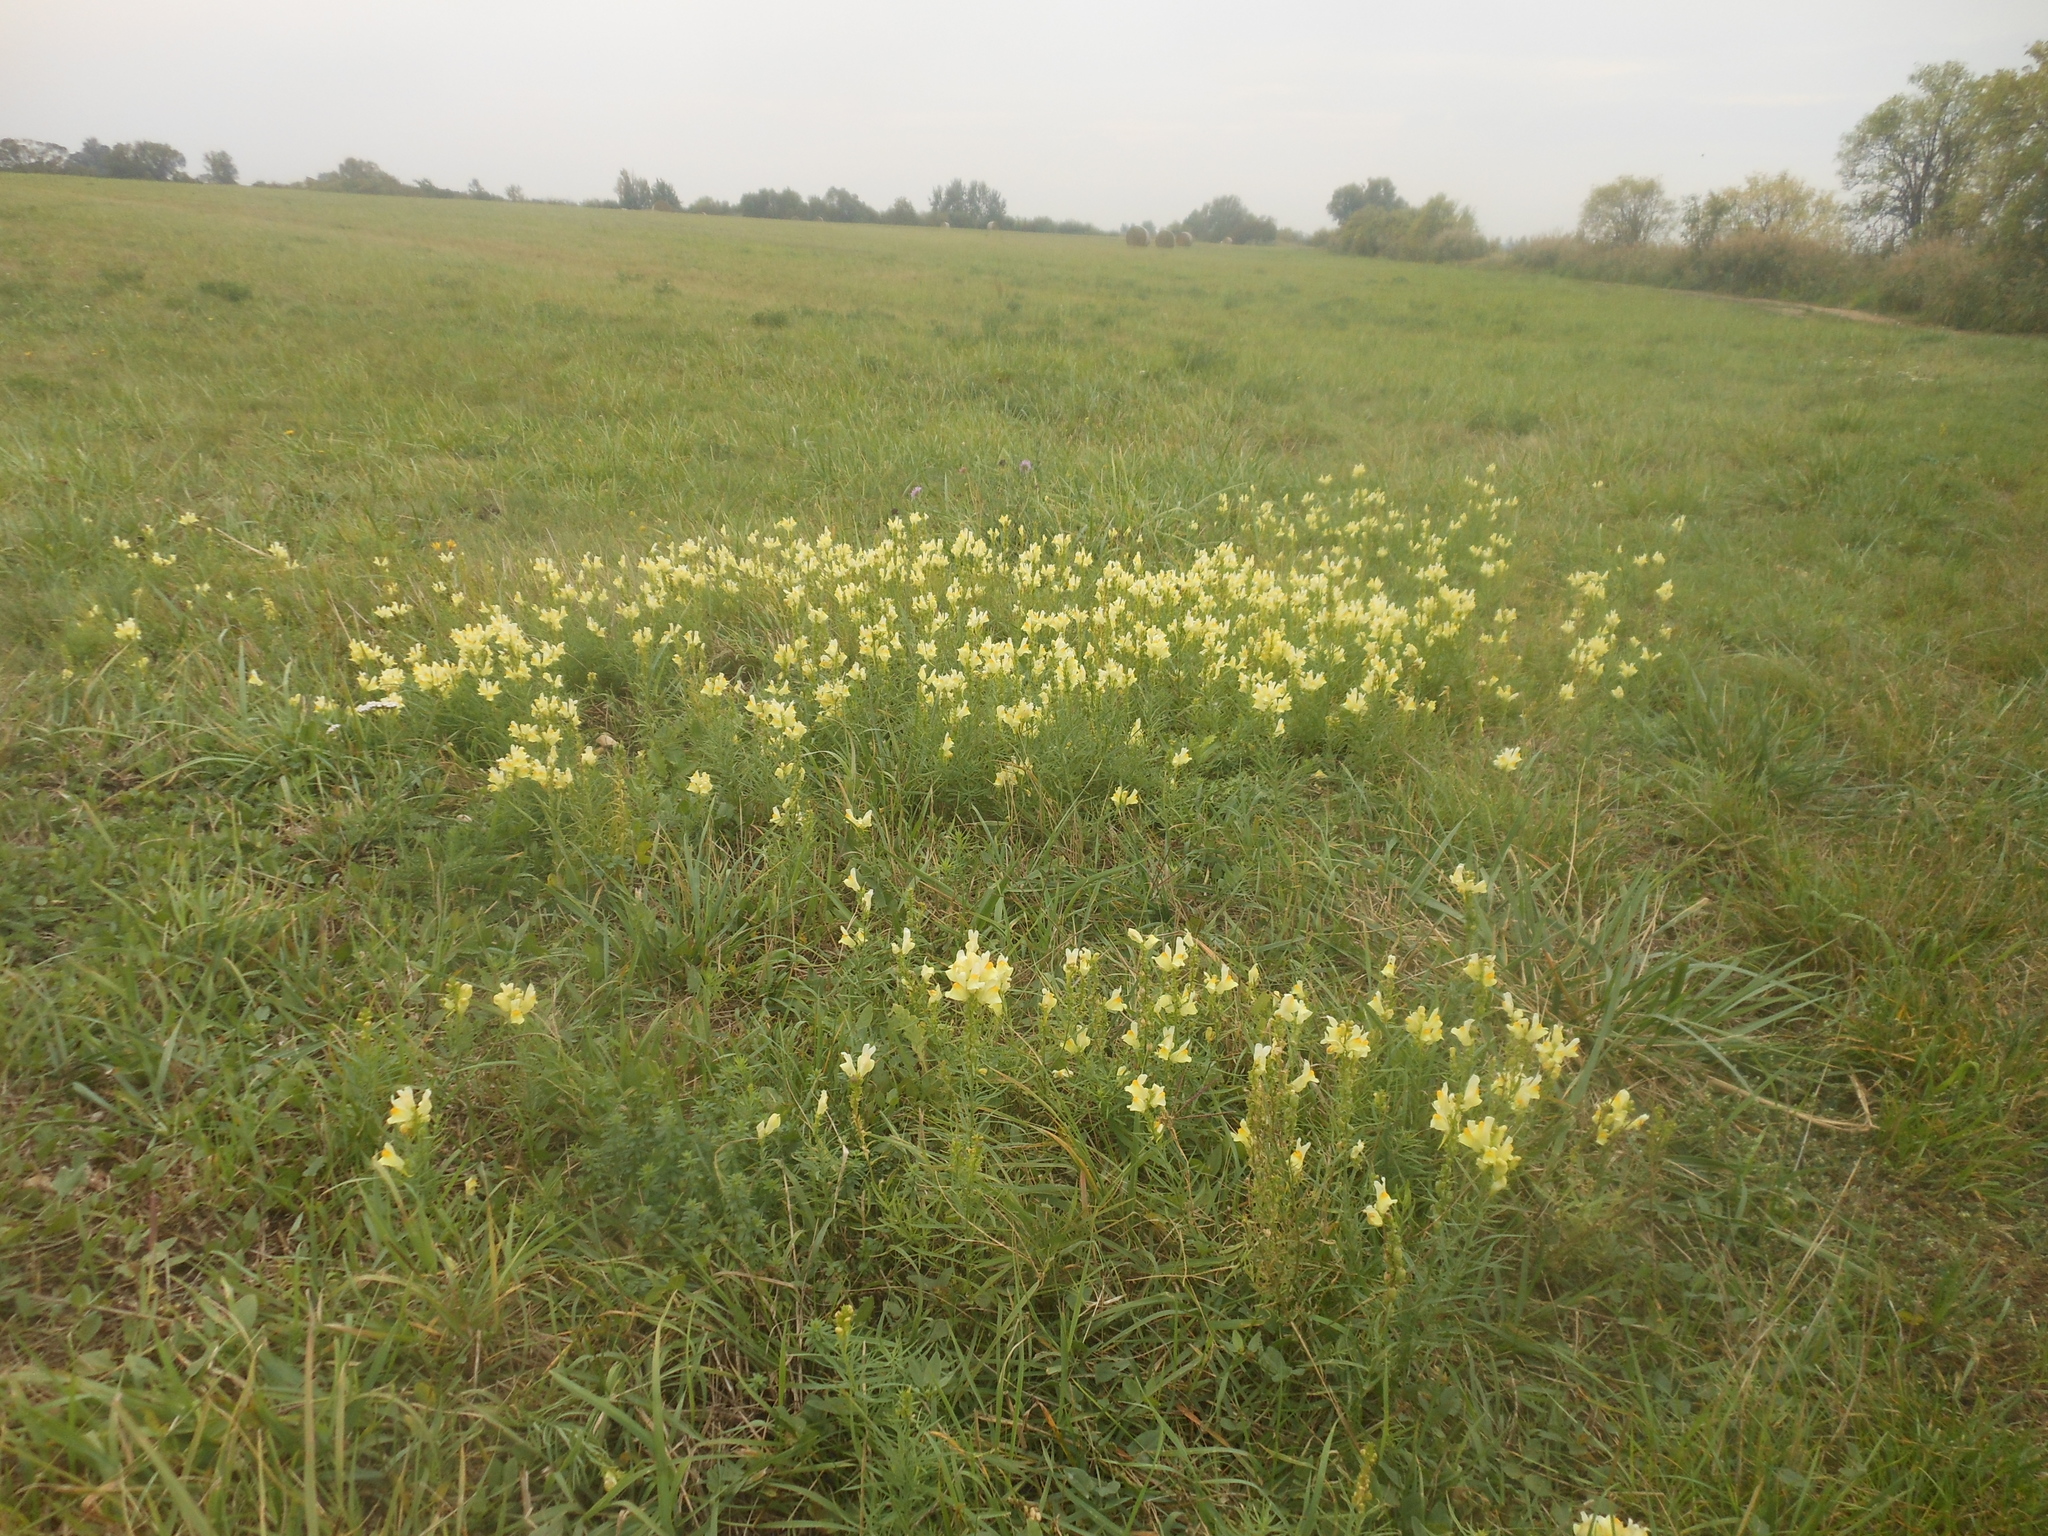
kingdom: Plantae
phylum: Tracheophyta
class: Magnoliopsida
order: Lamiales
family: Plantaginaceae
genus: Linaria
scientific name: Linaria vulgaris
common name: Butter and eggs
